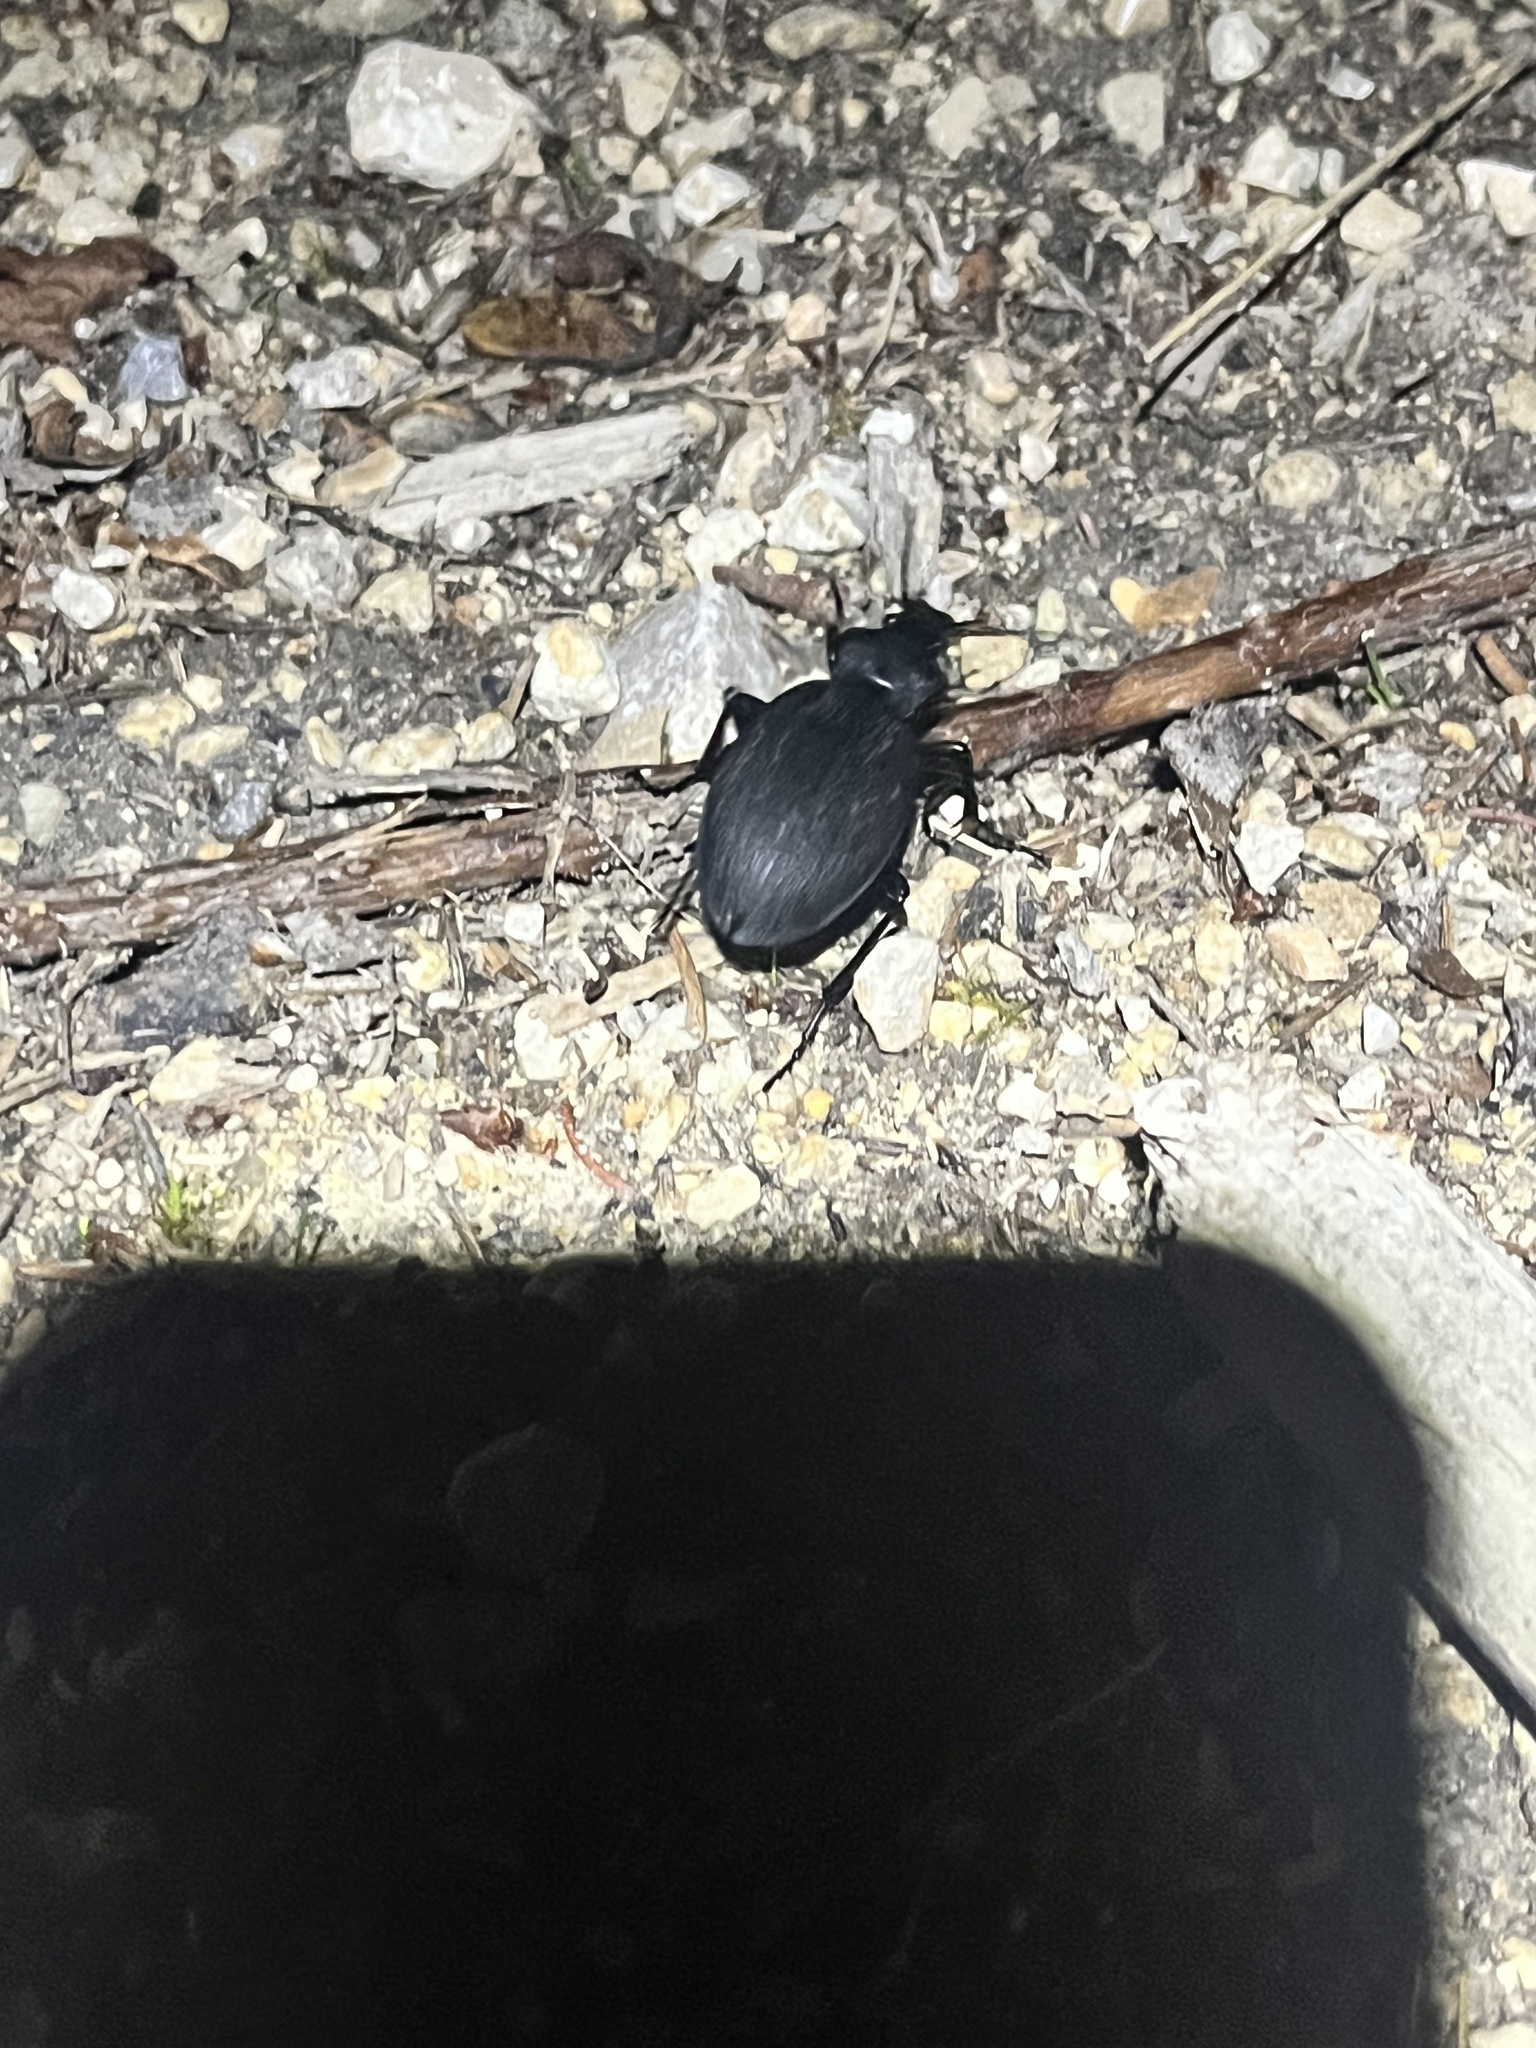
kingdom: Animalia
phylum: Arthropoda
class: Insecta
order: Coleoptera
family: Carabidae
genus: Carabus
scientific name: Carabus coriaceus
